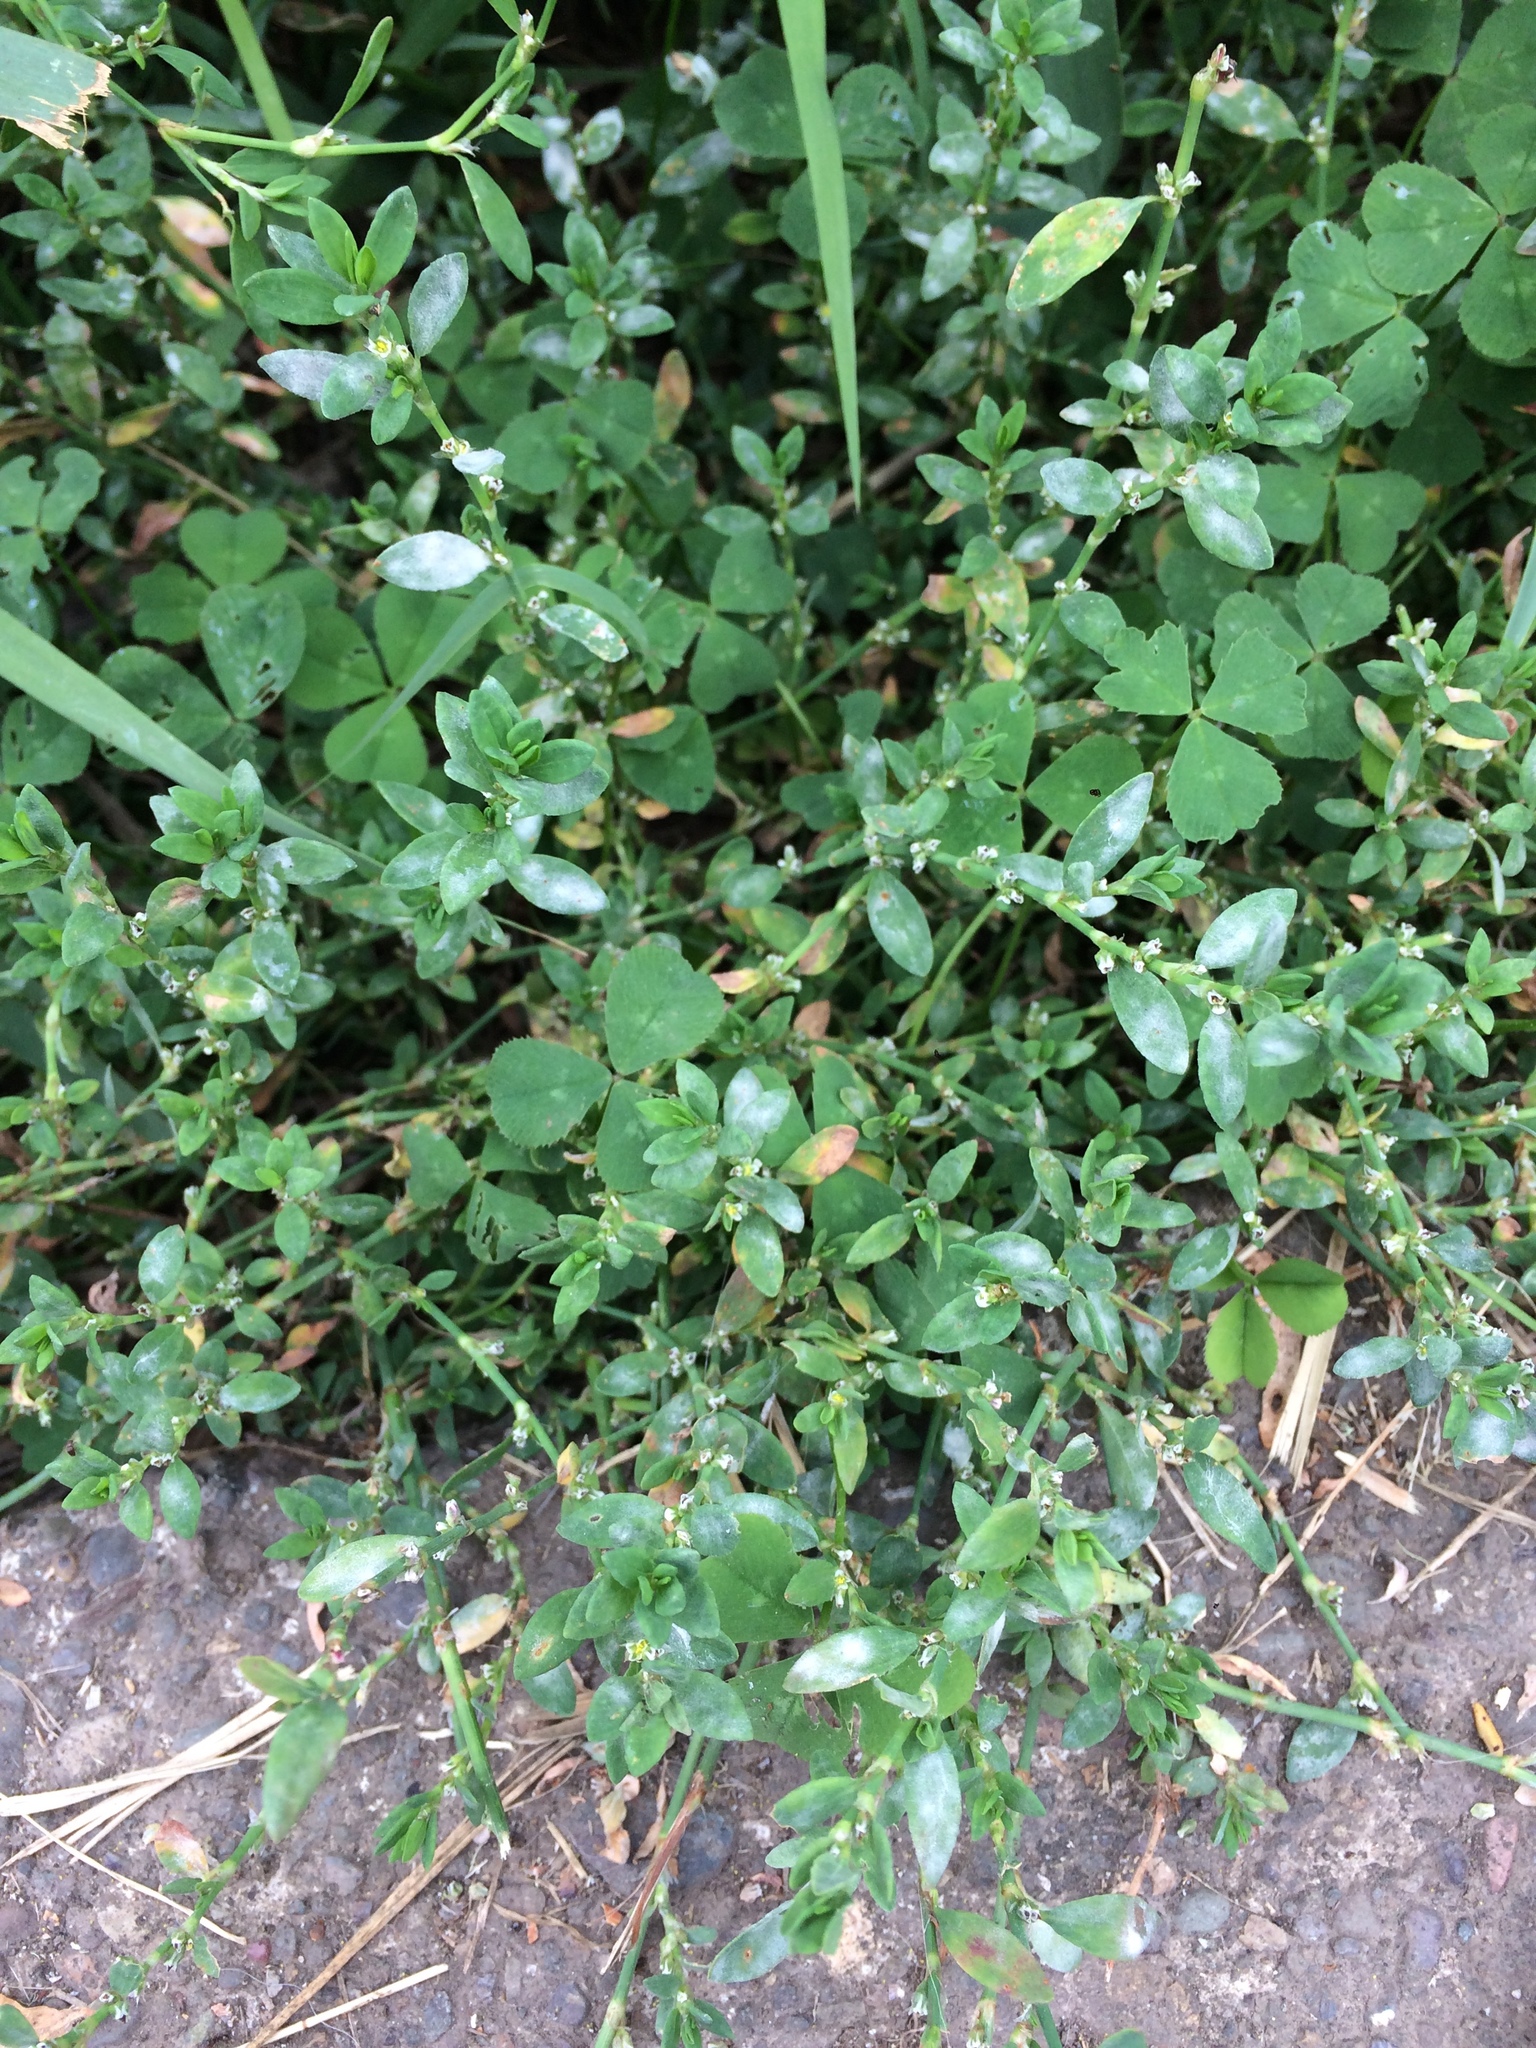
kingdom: Plantae
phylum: Tracheophyta
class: Magnoliopsida
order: Caryophyllales
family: Polygonaceae
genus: Polygonum
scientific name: Polygonum aviculare
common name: Prostrate knotweed
